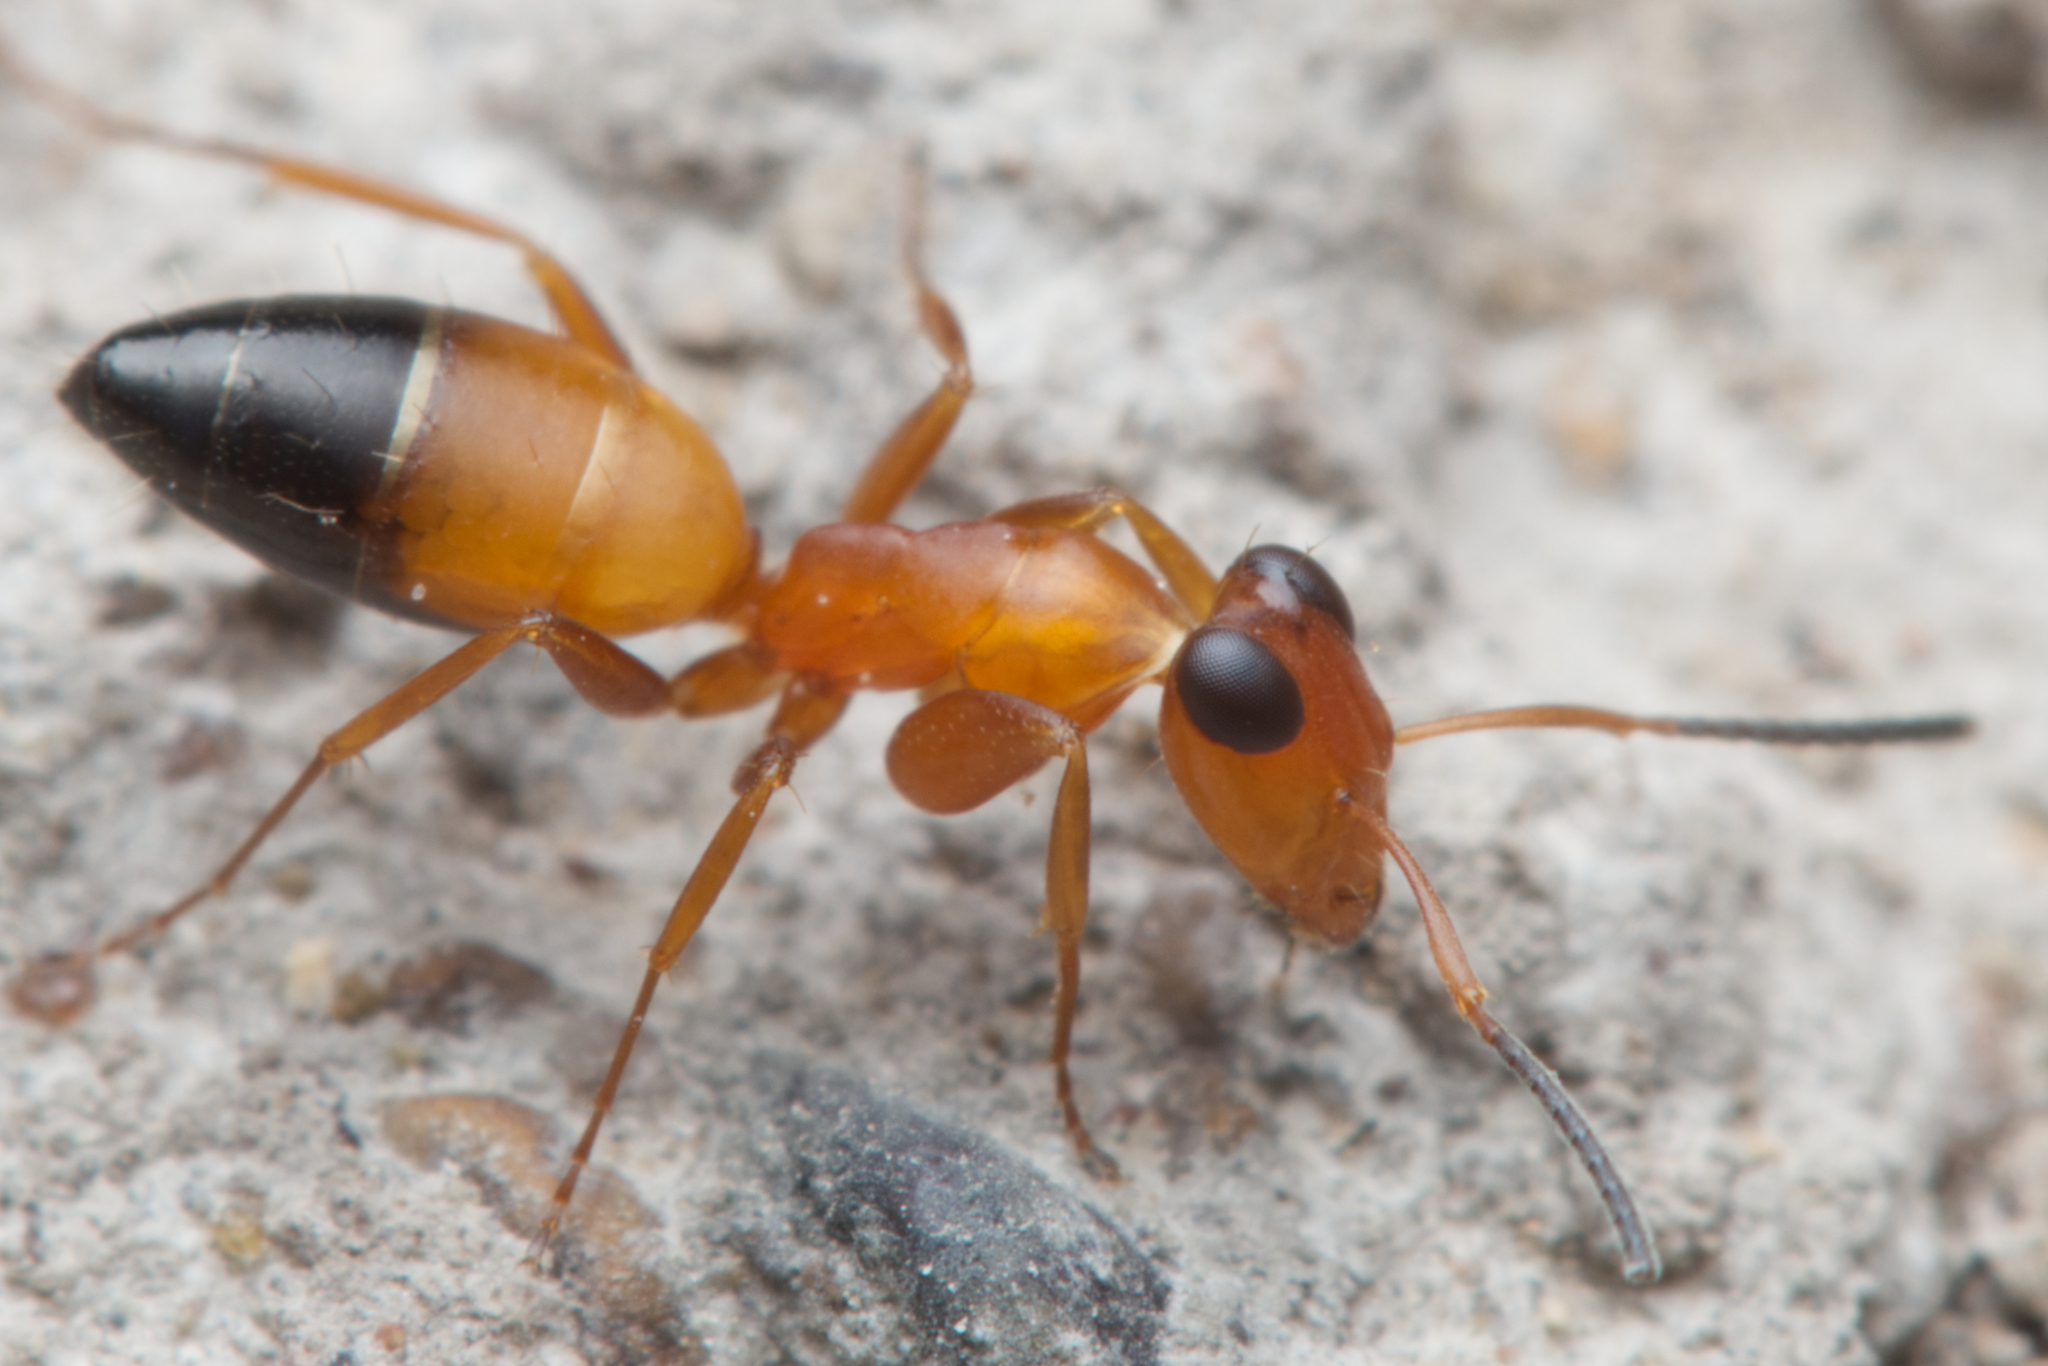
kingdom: Animalia
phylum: Arthropoda
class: Insecta
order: Hymenoptera
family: Formicidae
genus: Opisthopsis
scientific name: Opisthopsis haddoni
